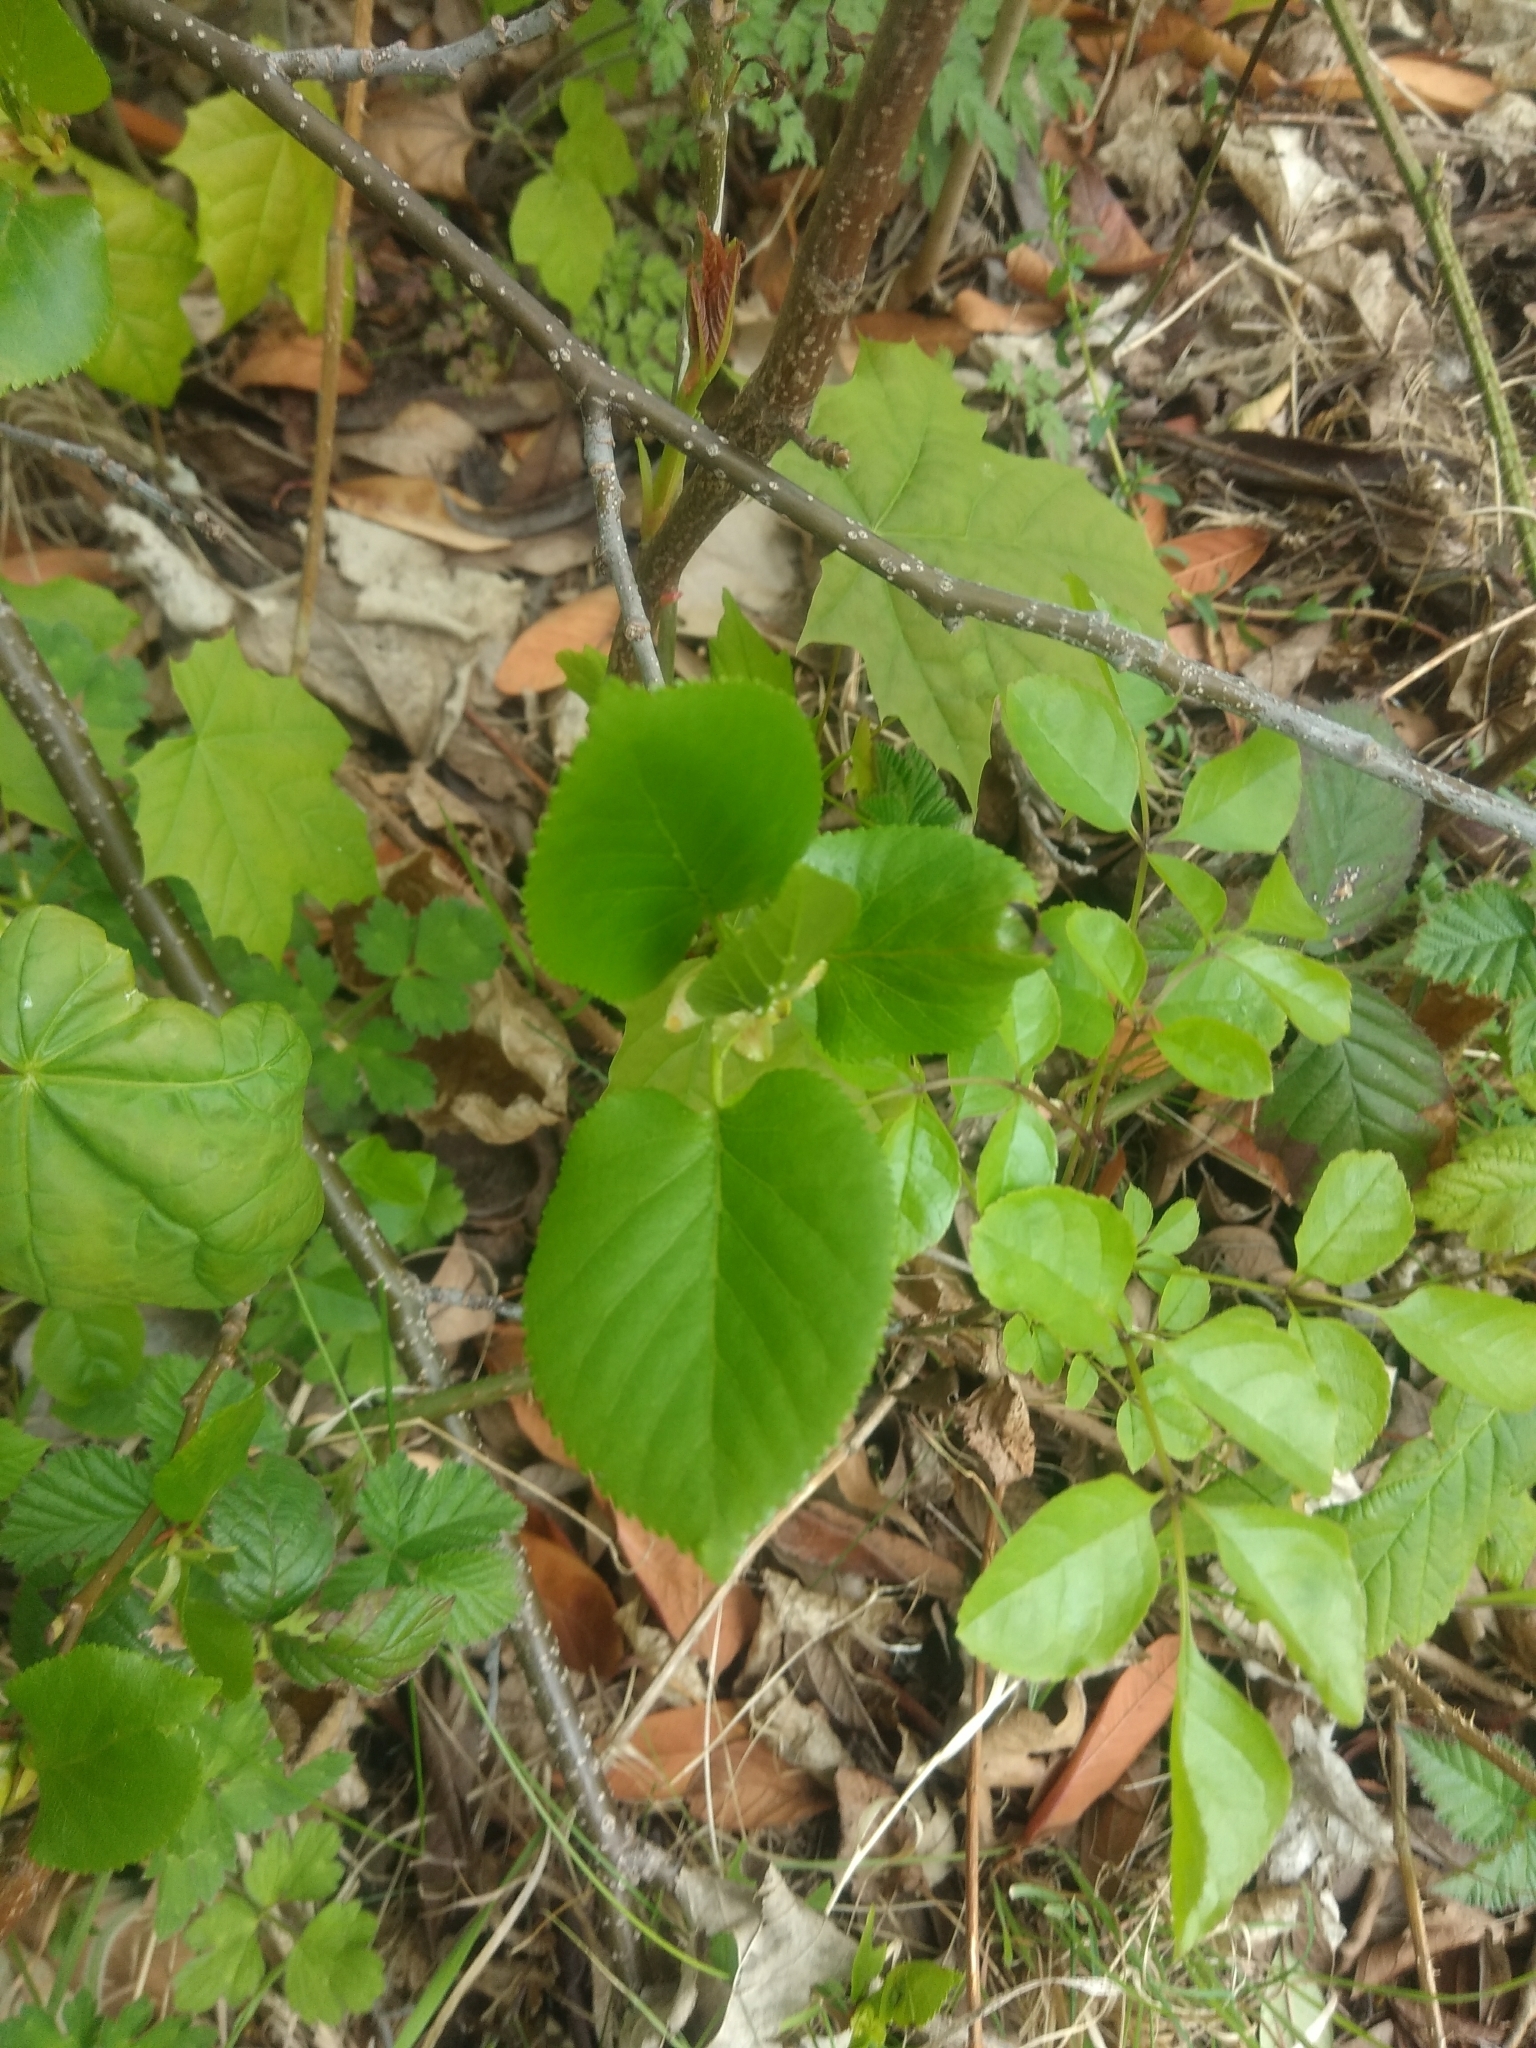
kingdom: Plantae
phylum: Tracheophyta
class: Magnoliopsida
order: Fagales
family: Betulaceae
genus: Alnus
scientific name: Alnus cordata
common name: Italian alder
